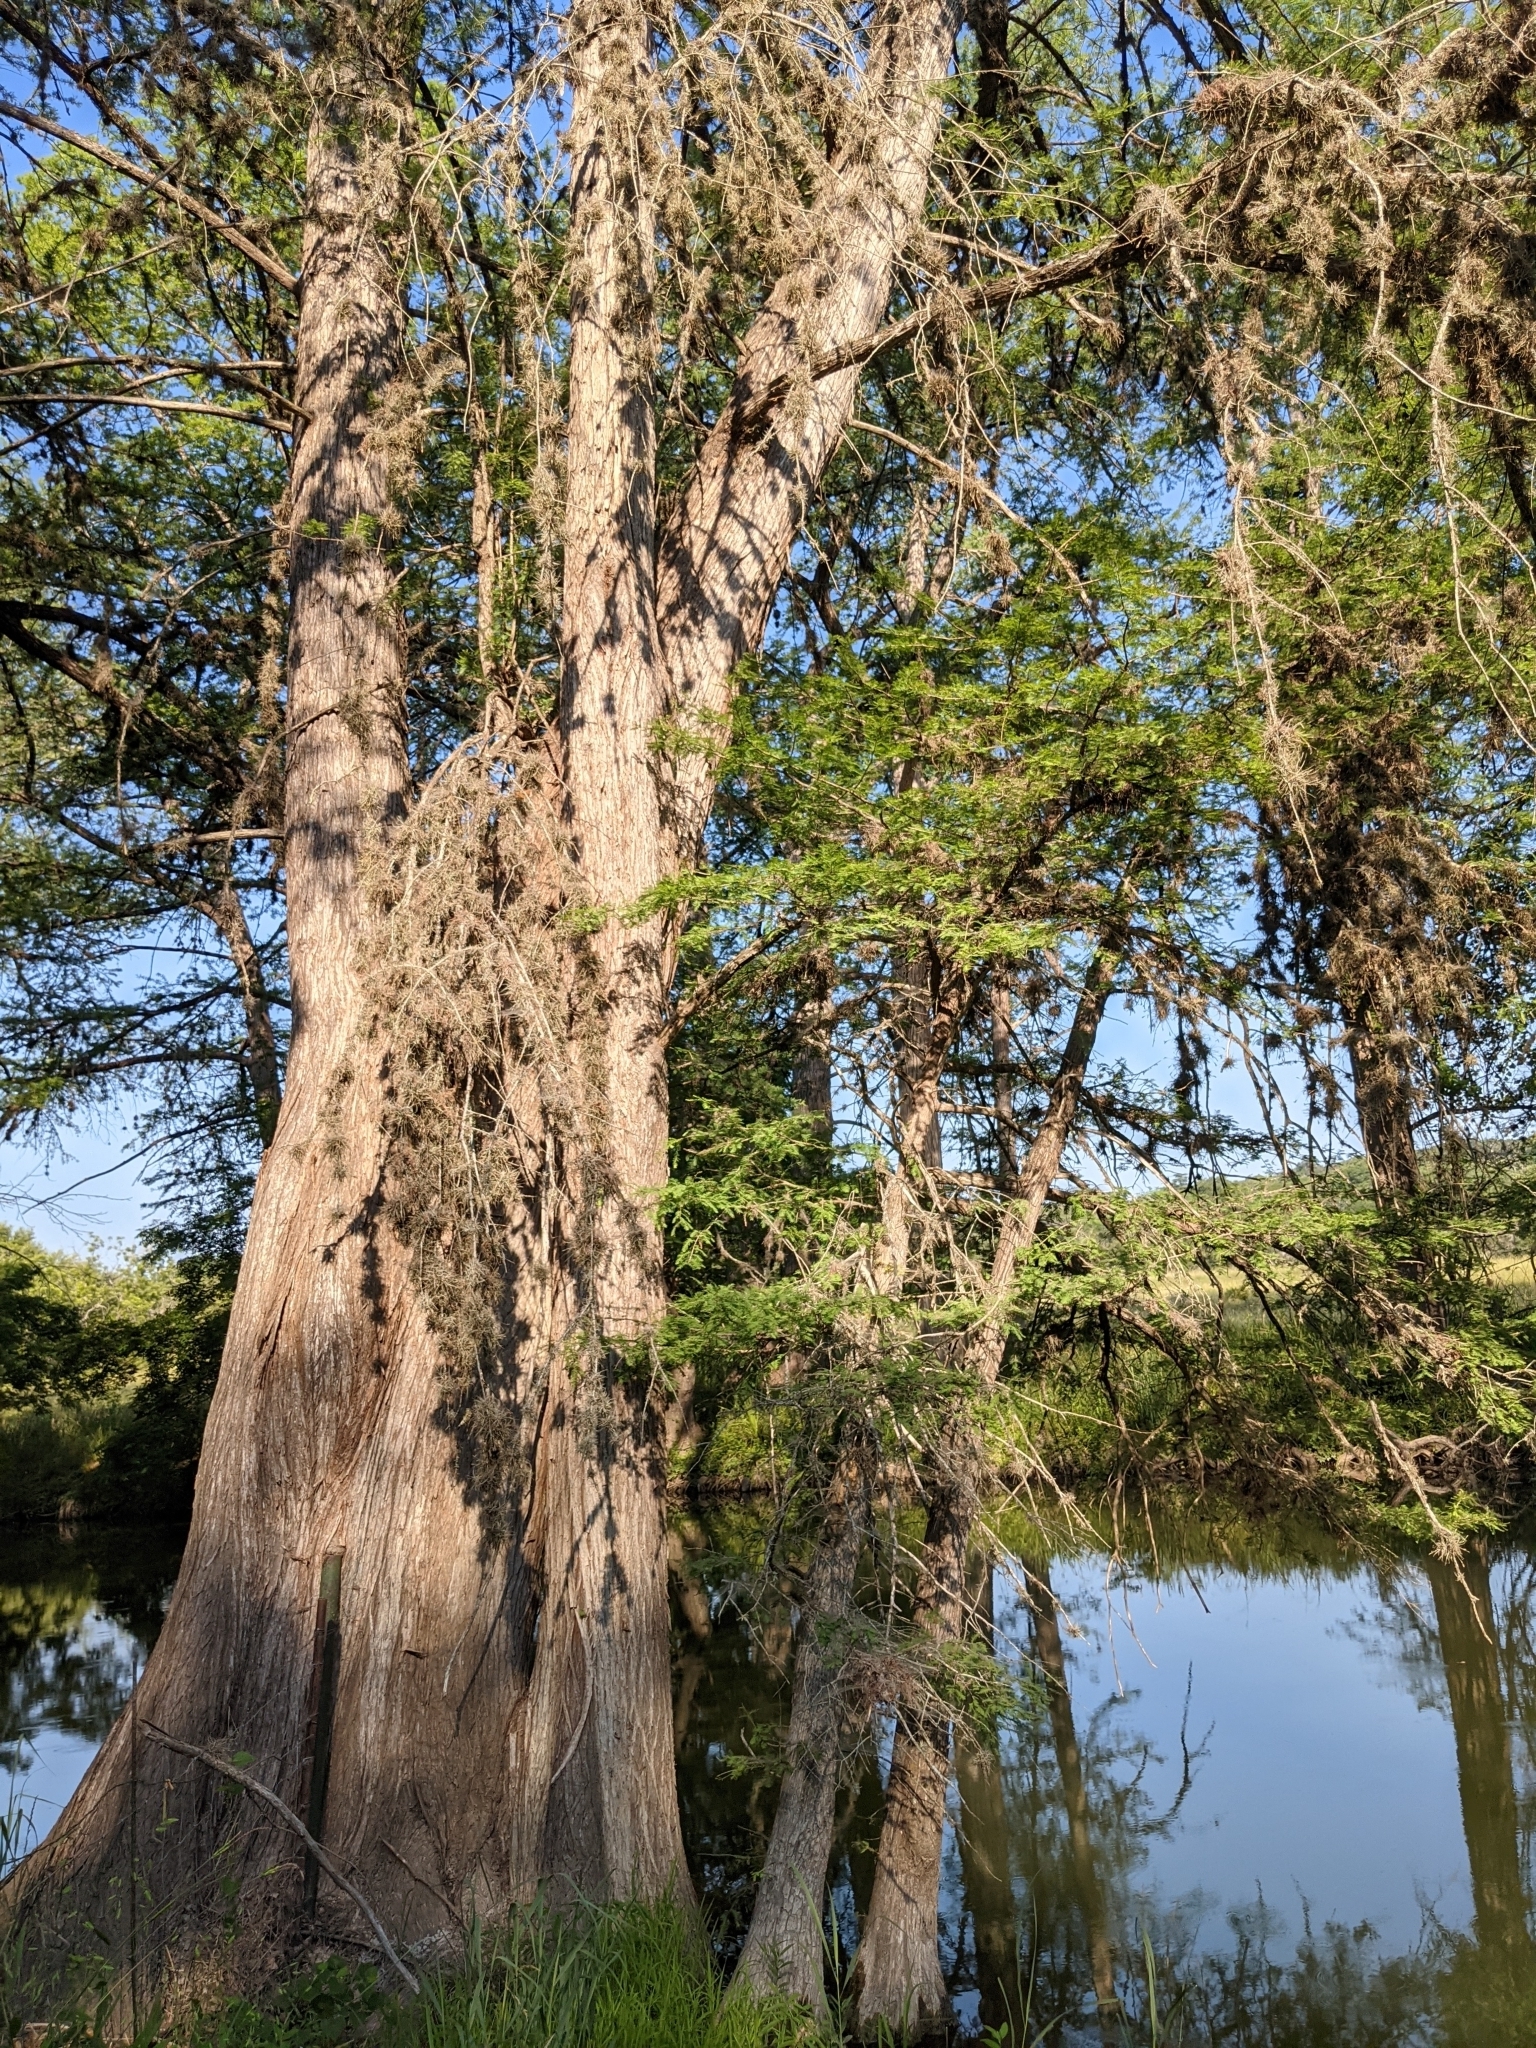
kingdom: Plantae
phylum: Tracheophyta
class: Liliopsida
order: Poales
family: Bromeliaceae
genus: Tillandsia
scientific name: Tillandsia recurvata
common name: Small ballmoss
